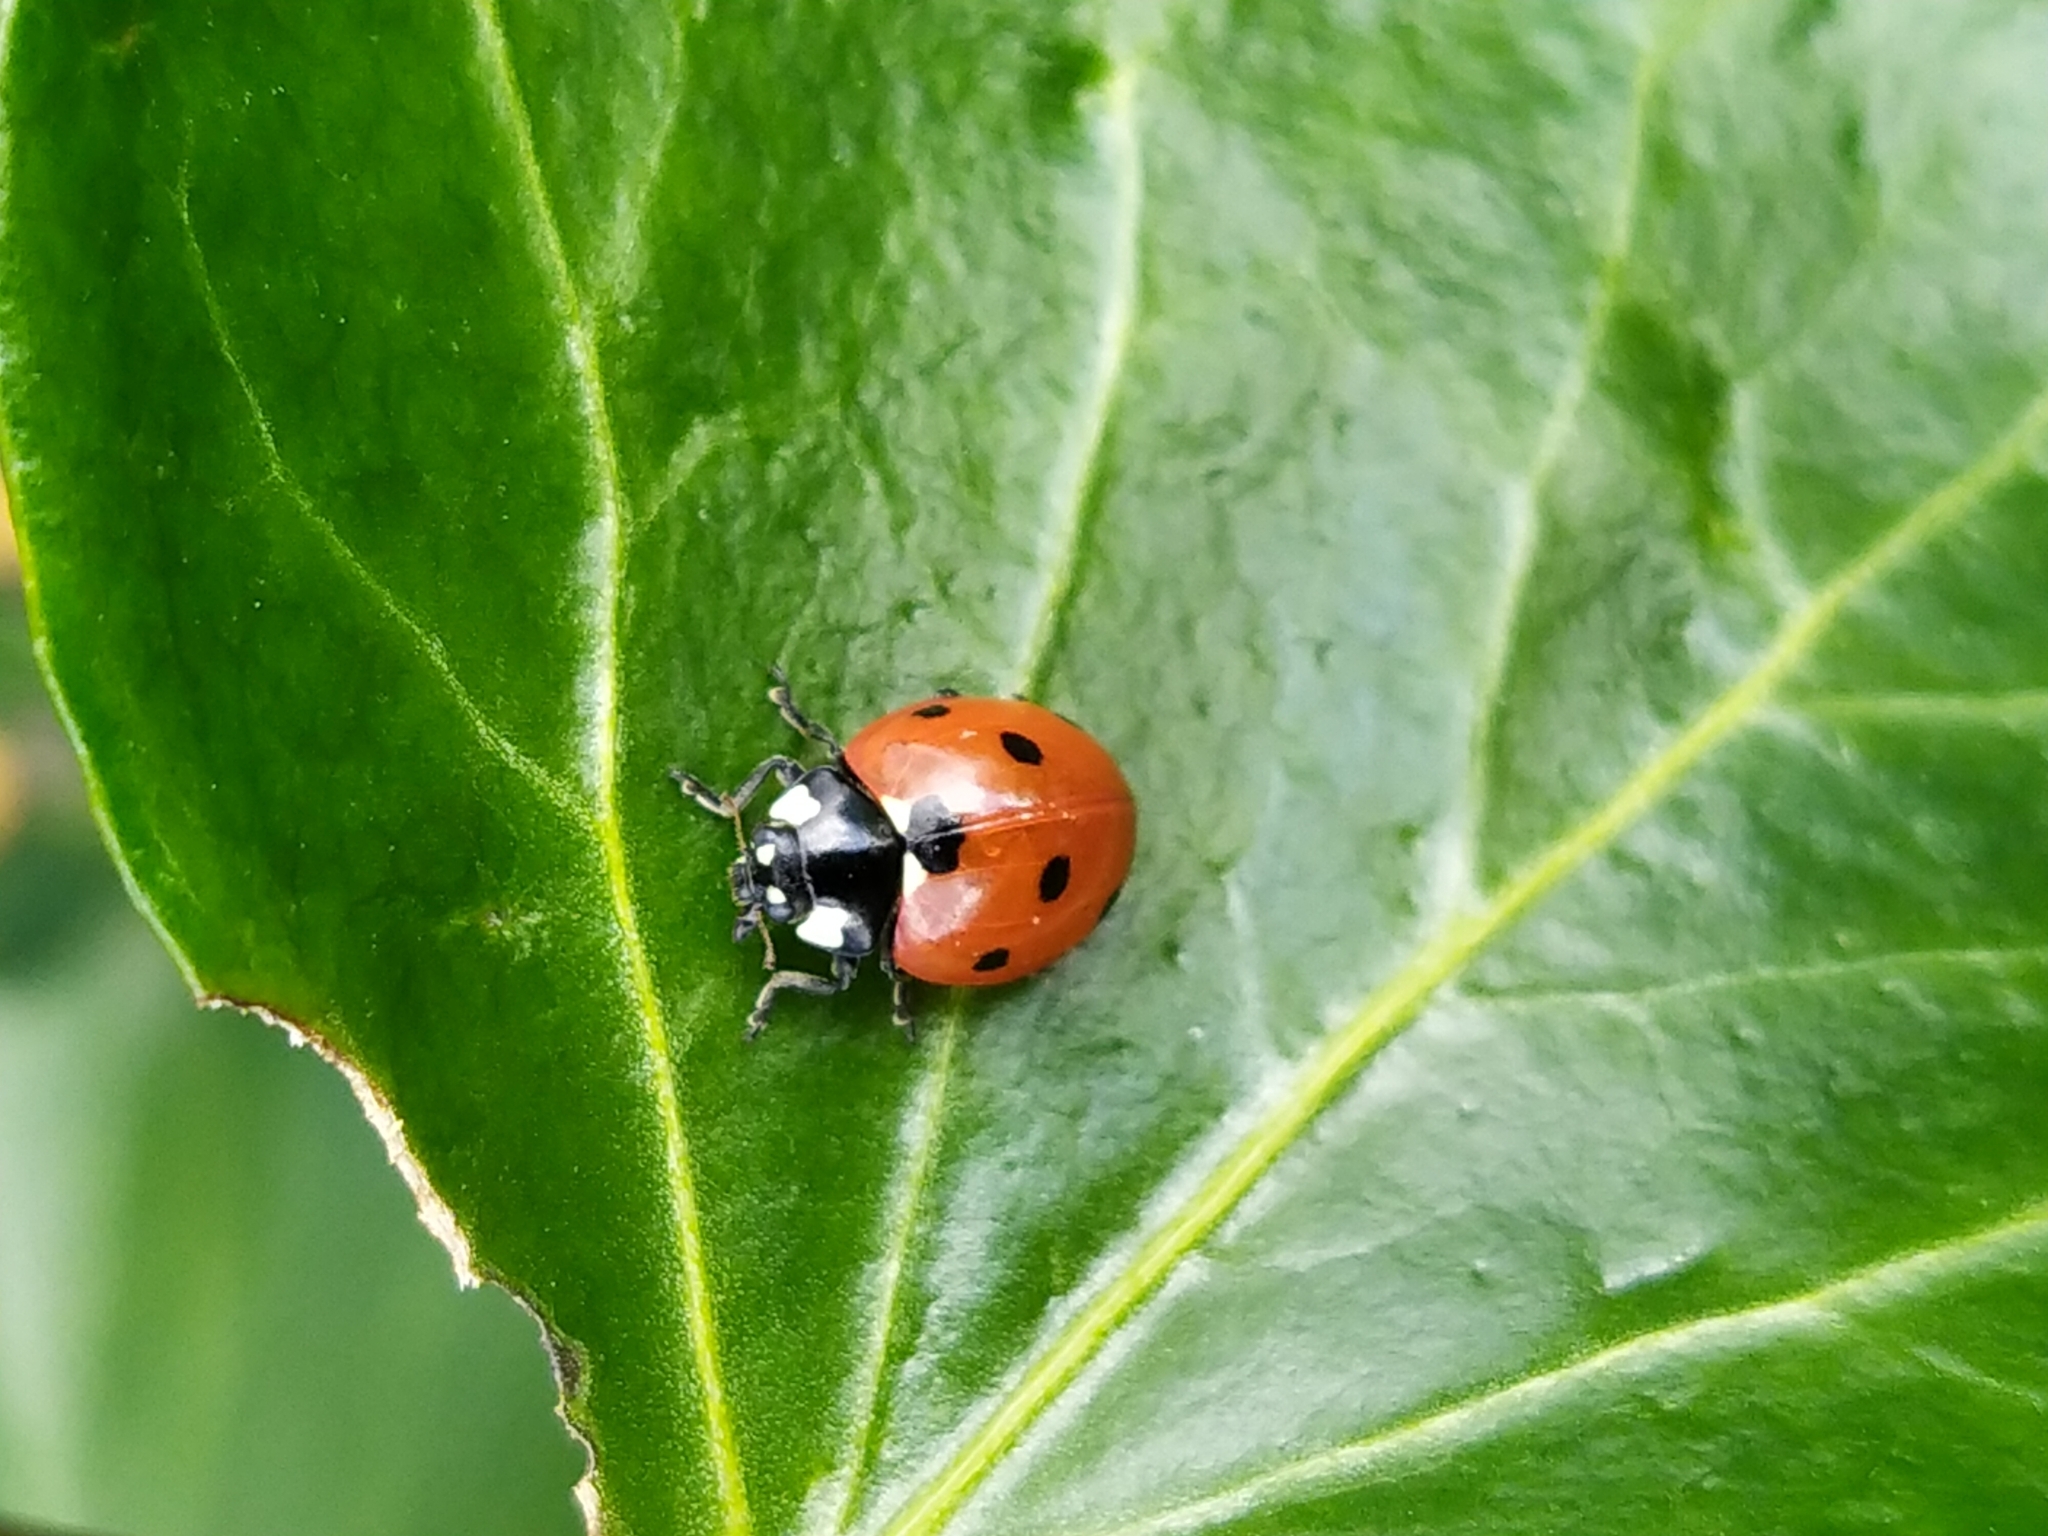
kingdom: Animalia
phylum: Arthropoda
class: Insecta
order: Coleoptera
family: Coccinellidae
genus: Coccinella
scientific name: Coccinella septempunctata
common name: Sevenspotted lady beetle
